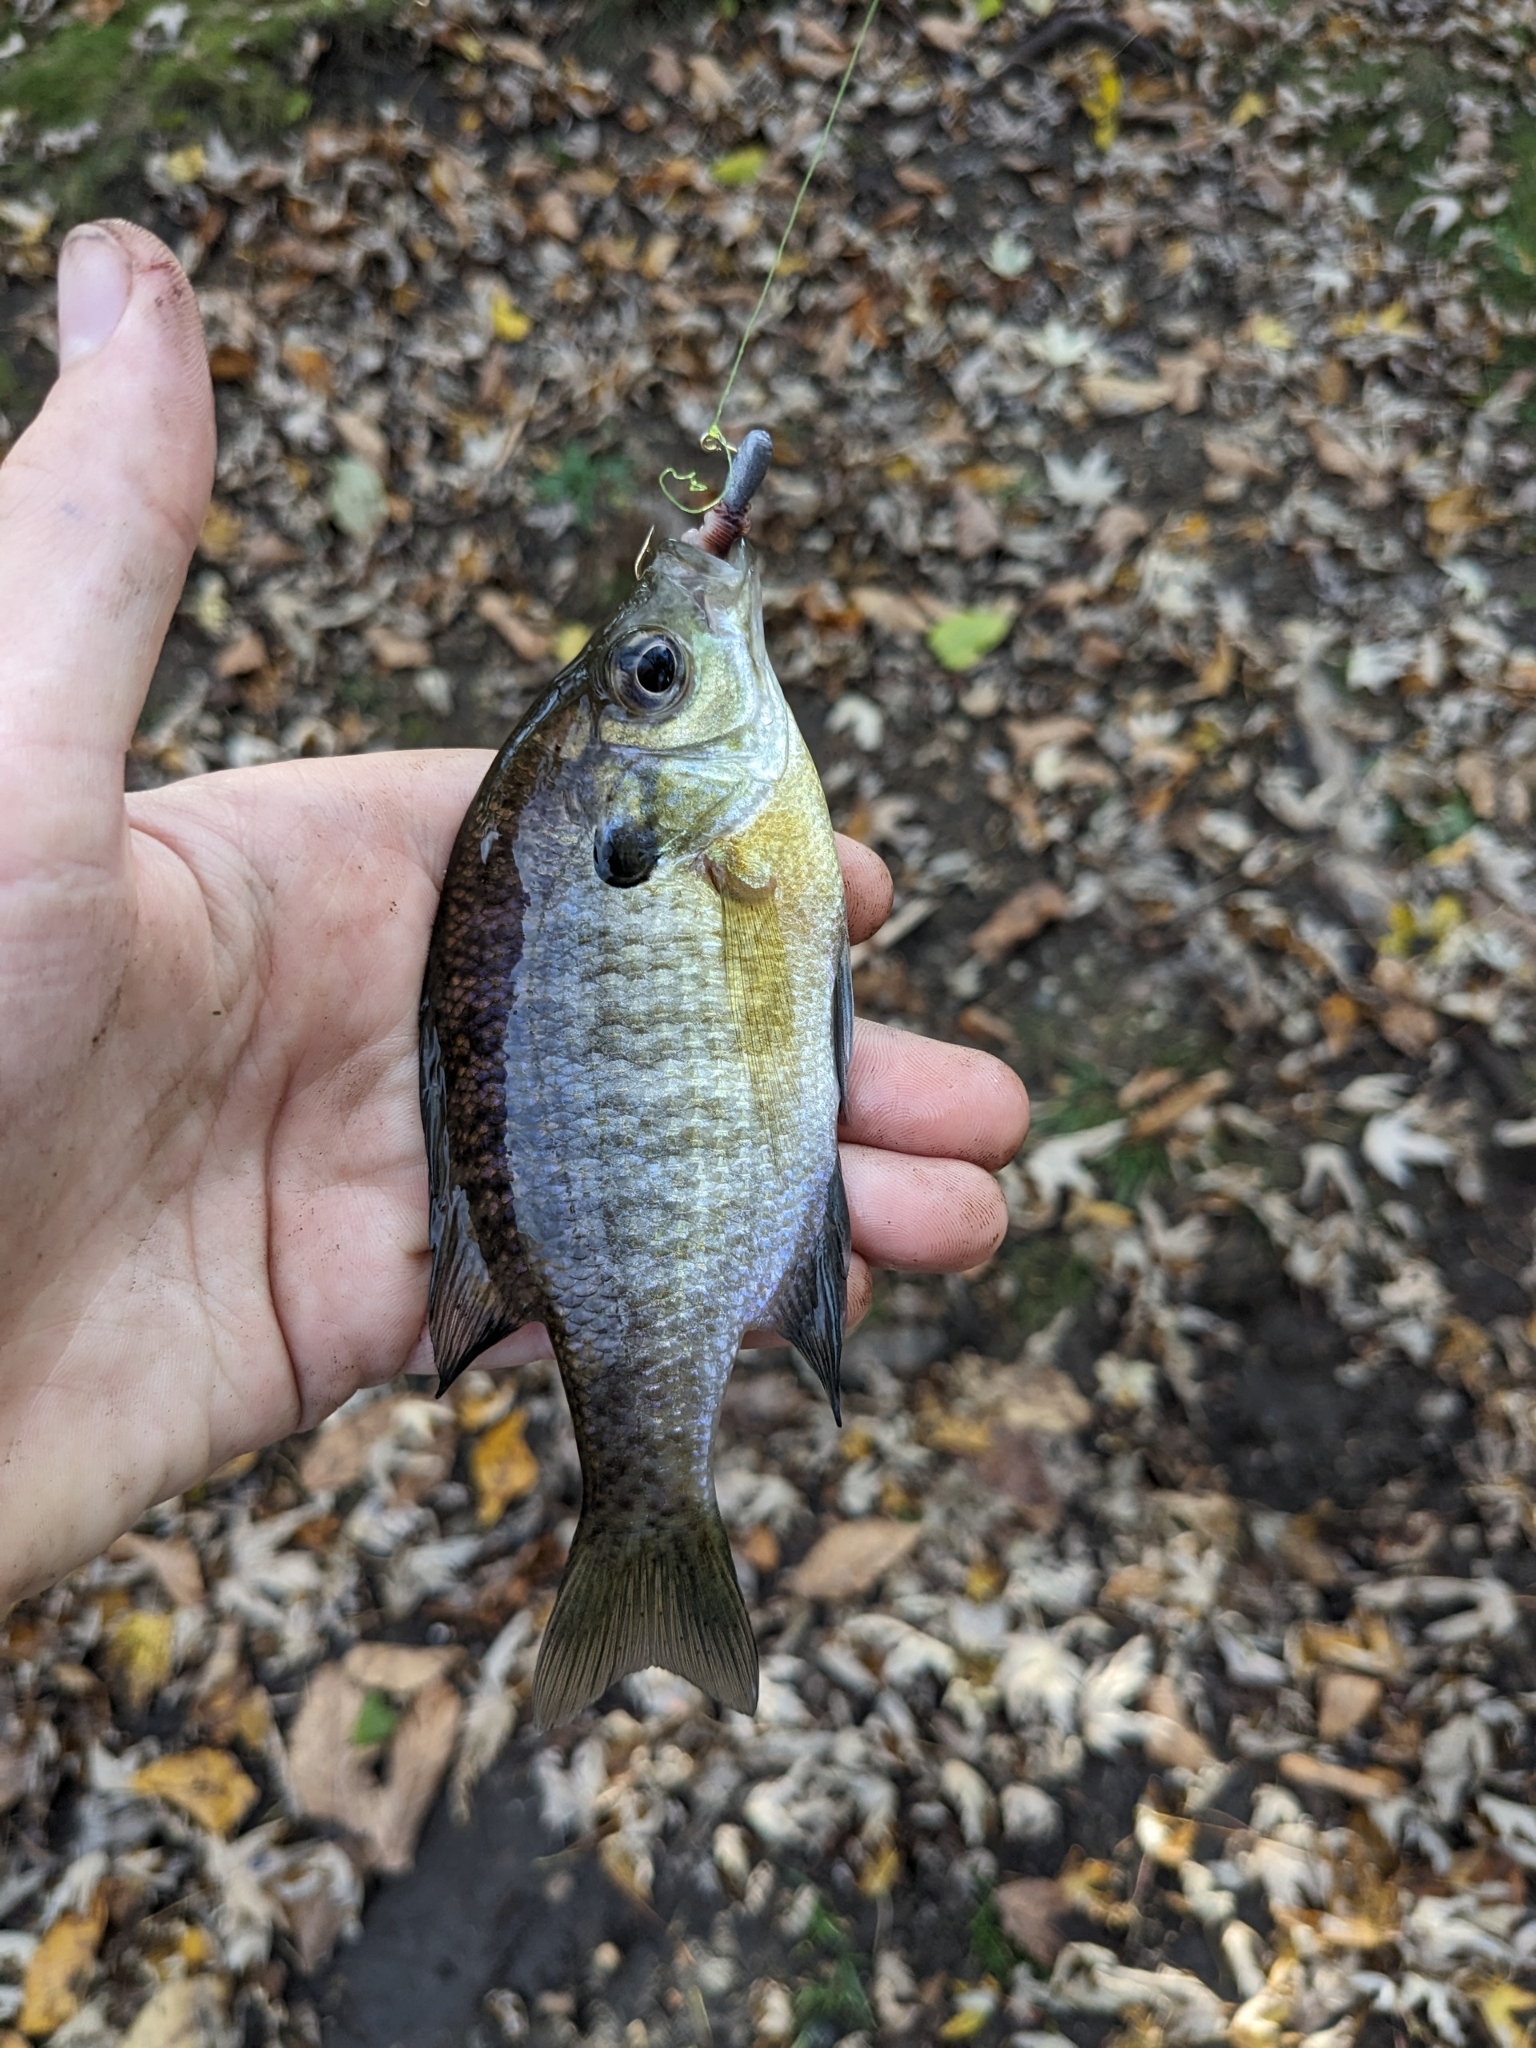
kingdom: Animalia
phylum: Chordata
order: Perciformes
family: Centrarchidae
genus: Lepomis
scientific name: Lepomis macrochirus
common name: Bluegill
